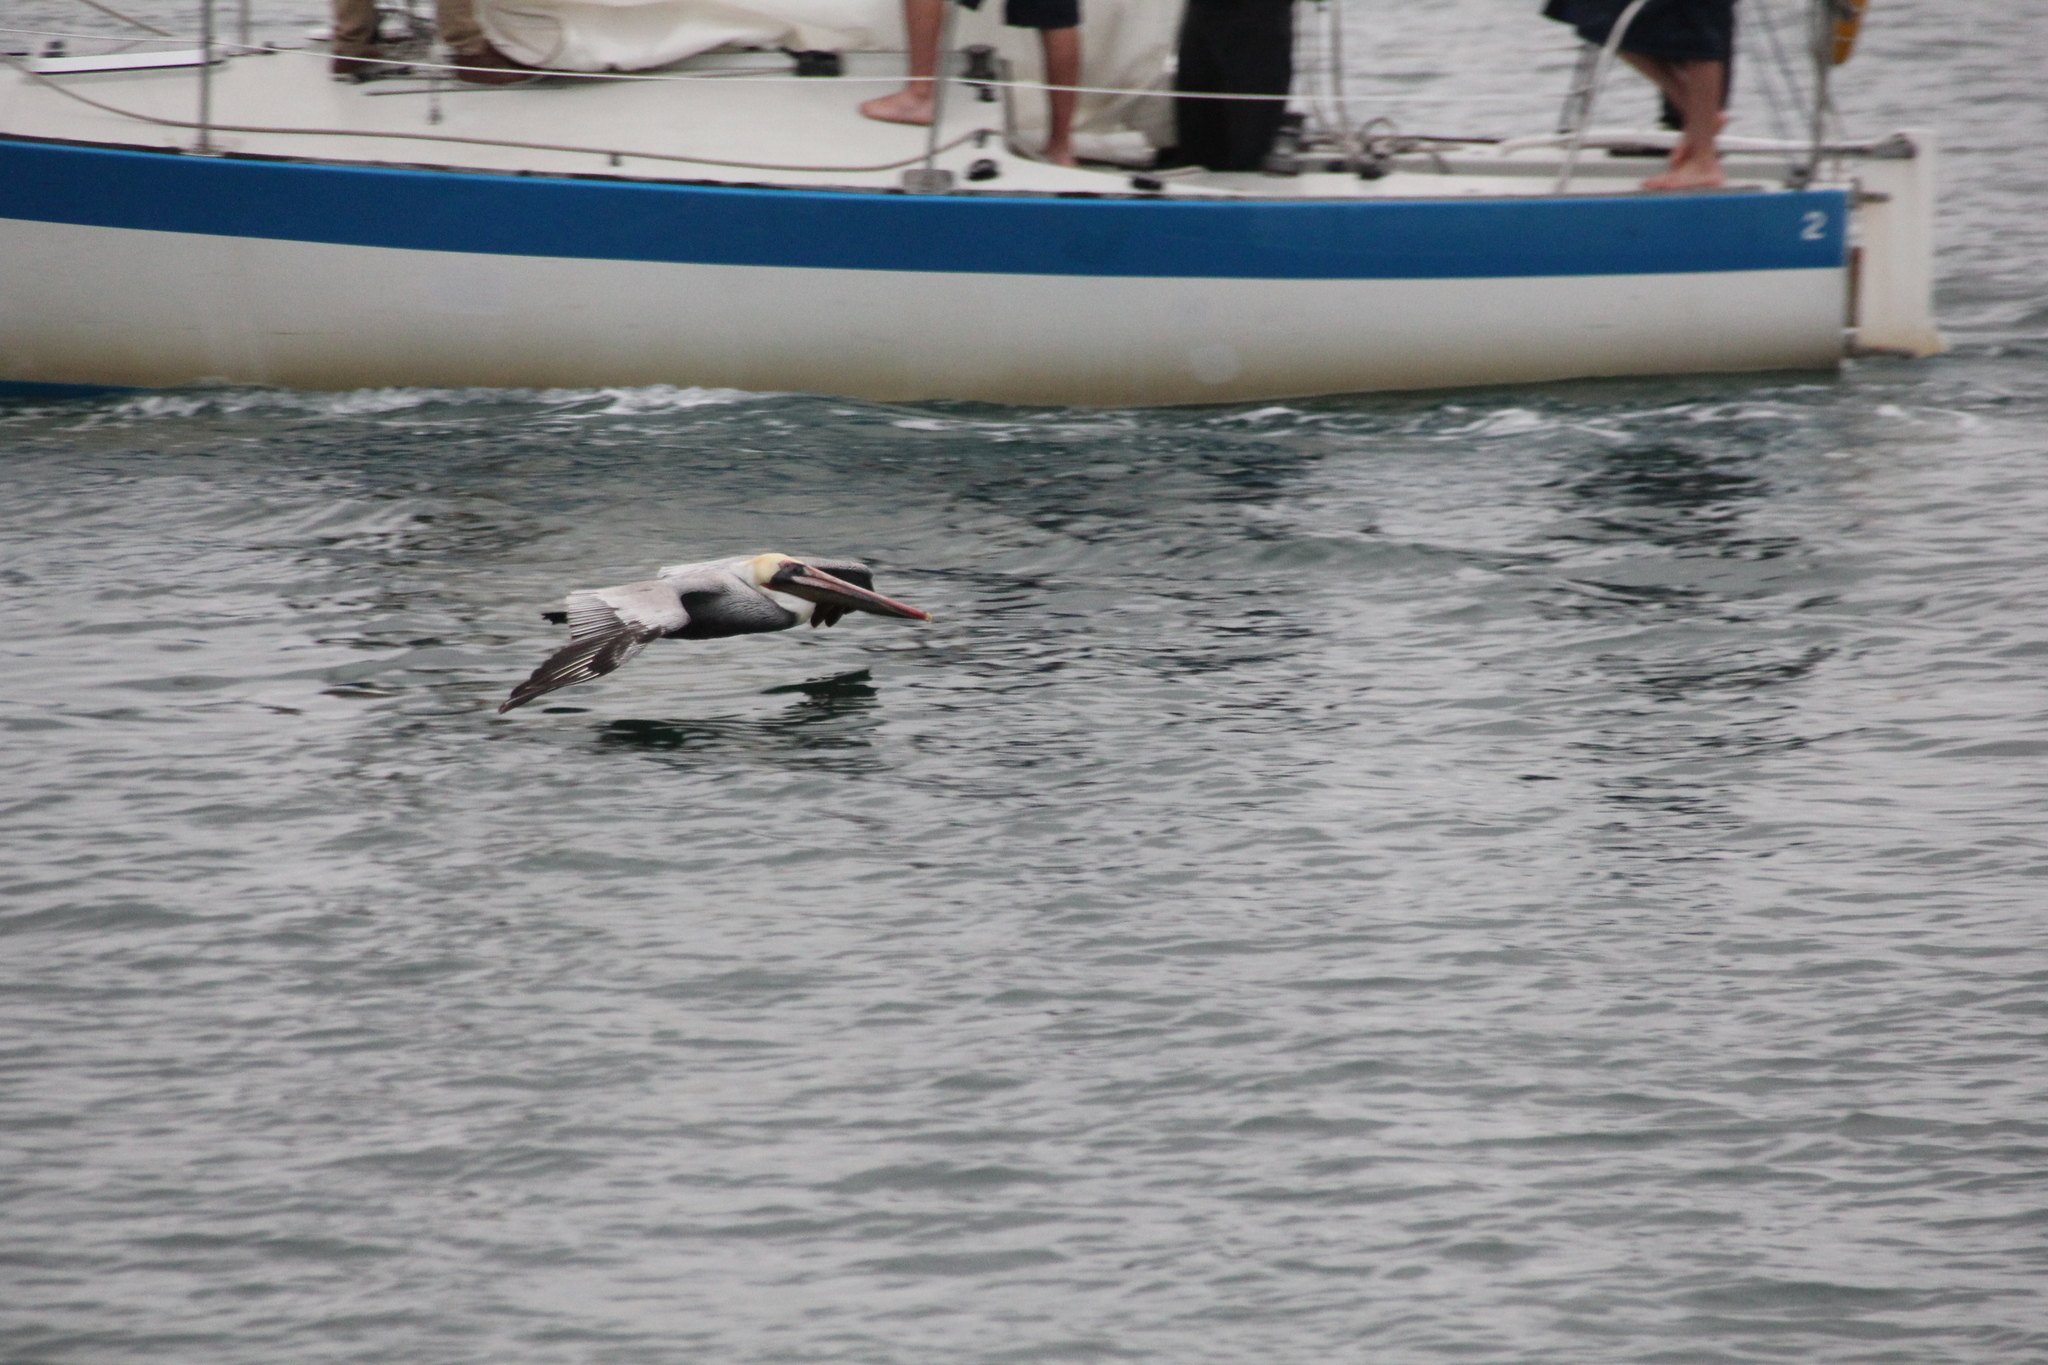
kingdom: Animalia
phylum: Chordata
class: Aves
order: Pelecaniformes
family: Pelecanidae
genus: Pelecanus
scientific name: Pelecanus occidentalis
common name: Brown pelican
